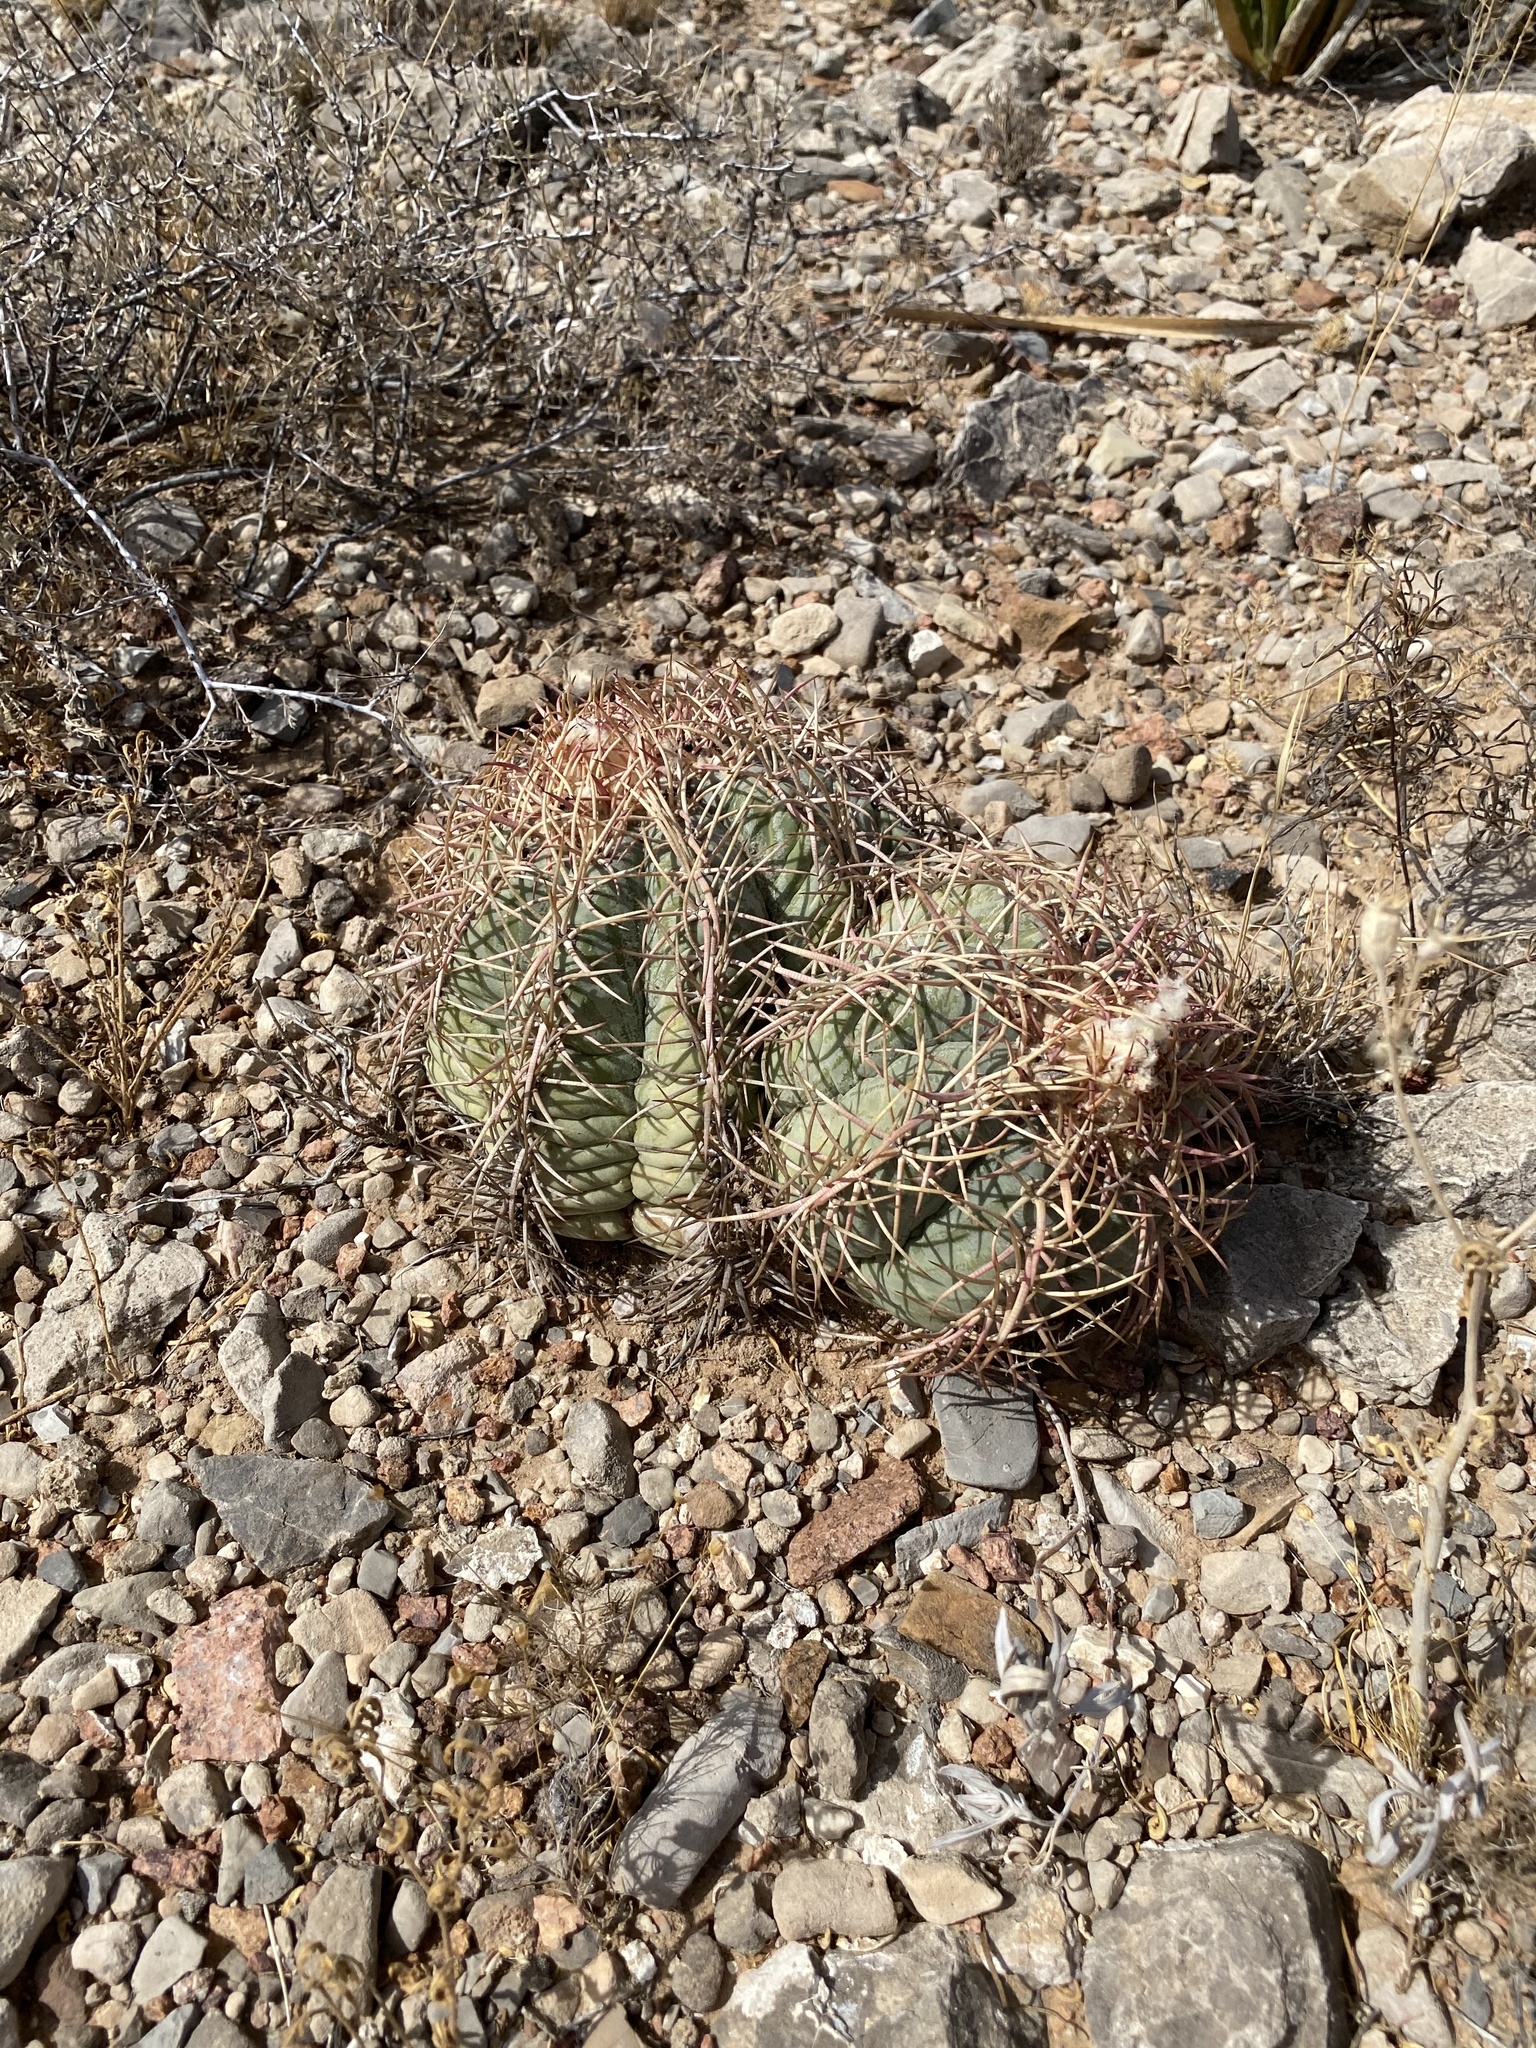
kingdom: Plantae
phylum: Tracheophyta
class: Magnoliopsida
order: Caryophyllales
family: Cactaceae
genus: Echinocactus
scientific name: Echinocactus horizonthalonius
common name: Devilshead
